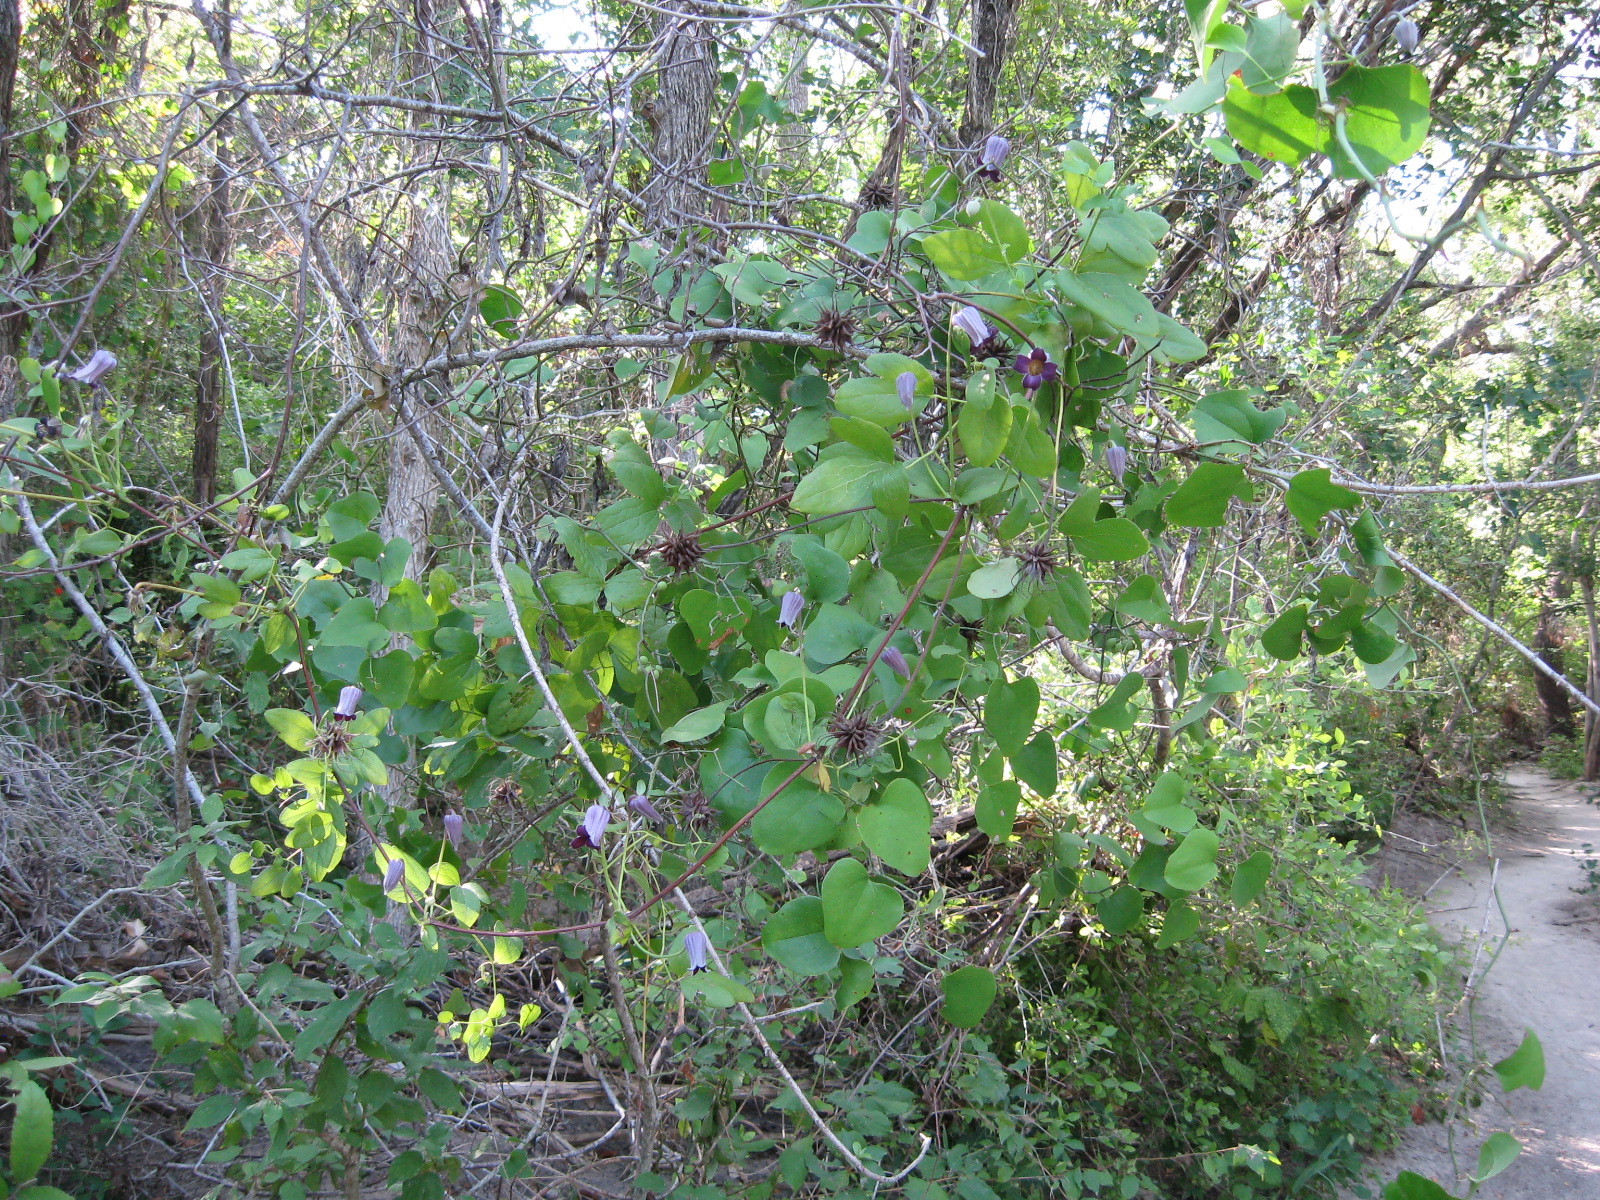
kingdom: Plantae
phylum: Tracheophyta
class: Magnoliopsida
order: Ranunculales
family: Ranunculaceae
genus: Clematis
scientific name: Clematis pitcheri
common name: Bellflower clematis
